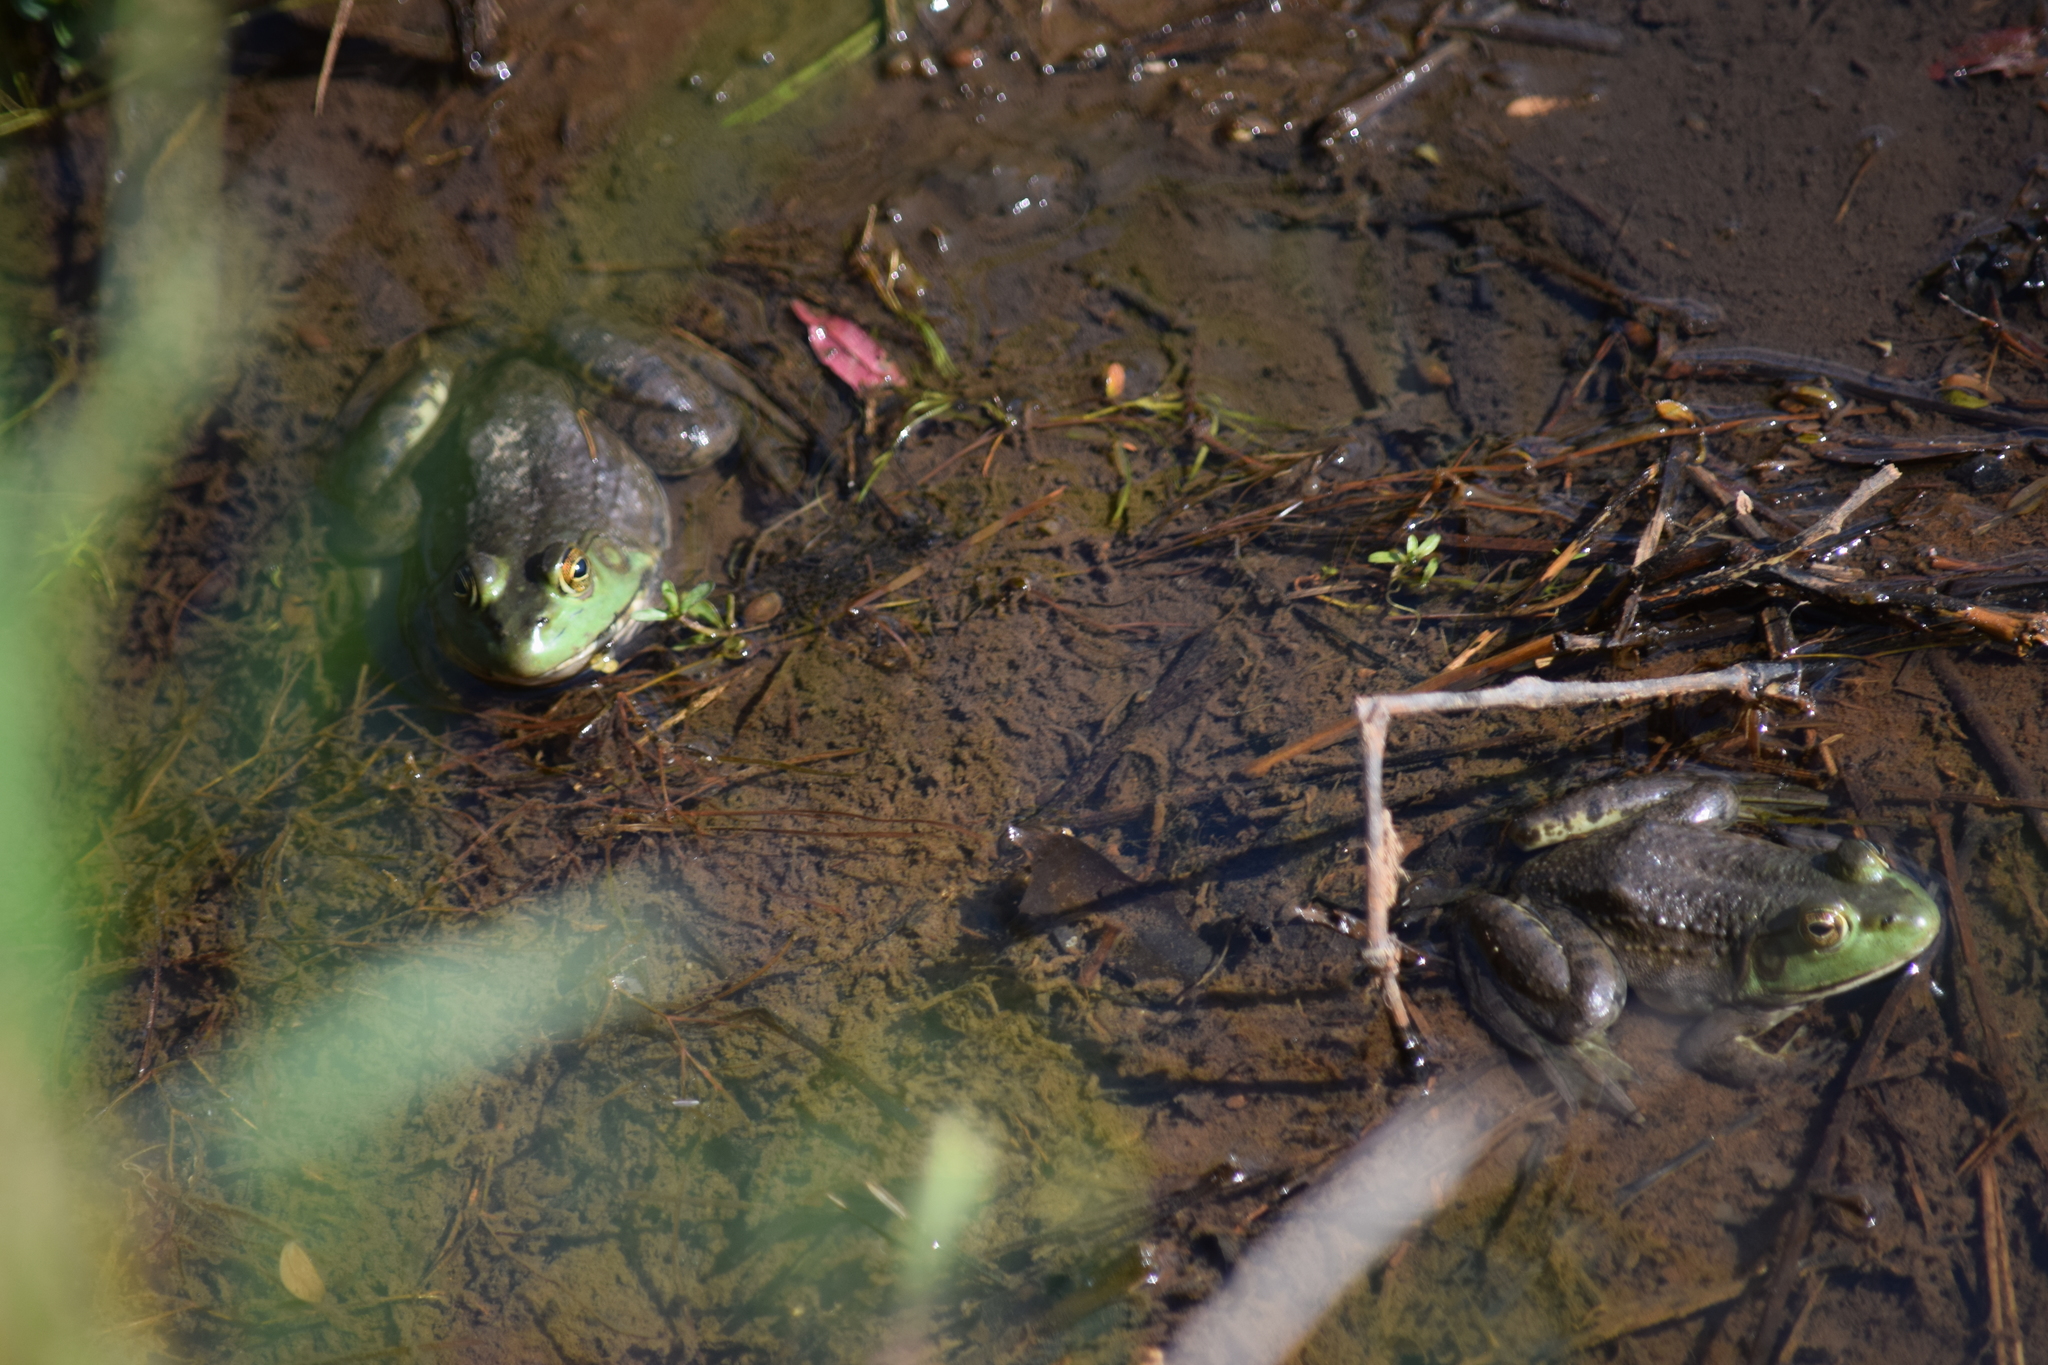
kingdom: Animalia
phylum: Chordata
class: Amphibia
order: Anura
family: Ranidae
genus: Lithobates
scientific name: Lithobates catesbeianus
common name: American bullfrog
